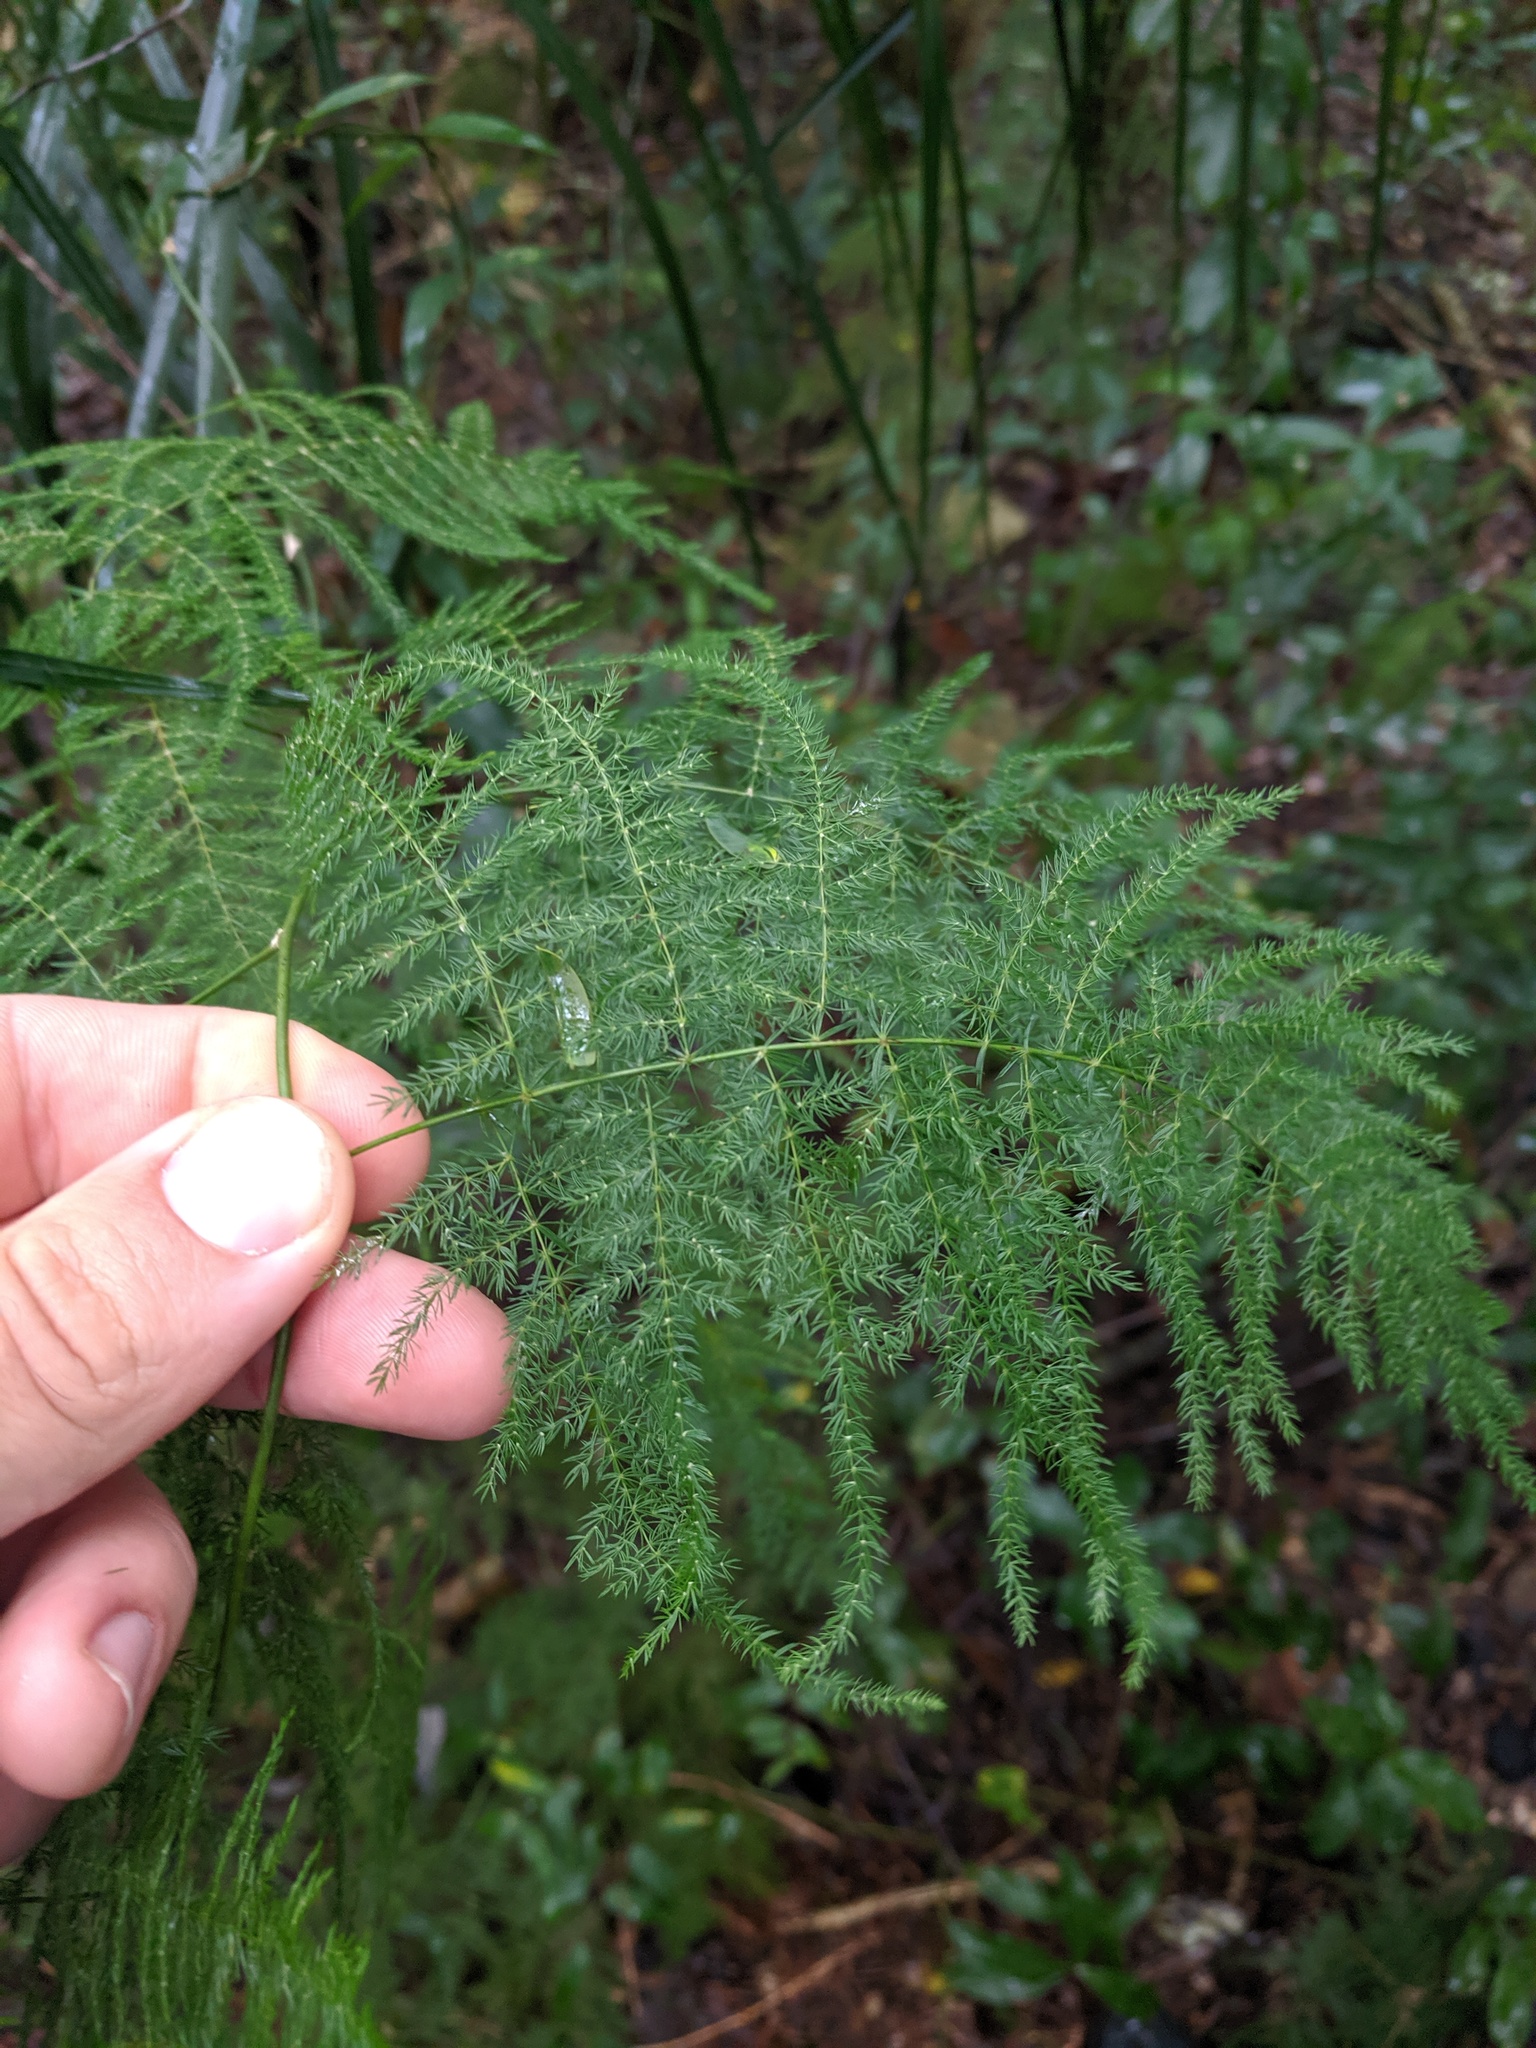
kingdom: Plantae
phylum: Tracheophyta
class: Liliopsida
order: Asparagales
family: Asparagaceae
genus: Asparagus
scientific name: Asparagus setaceus
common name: Common asparagus fern
